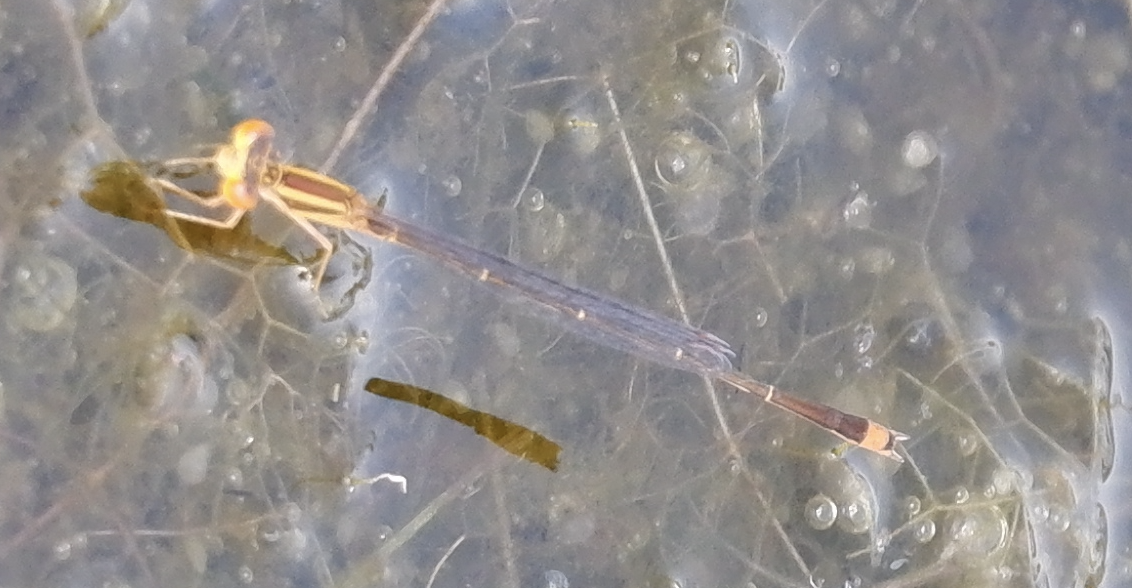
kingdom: Animalia
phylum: Arthropoda
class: Insecta
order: Odonata
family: Coenagrionidae
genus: Enallagma
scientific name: Enallagma signatum
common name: Orange bluet
